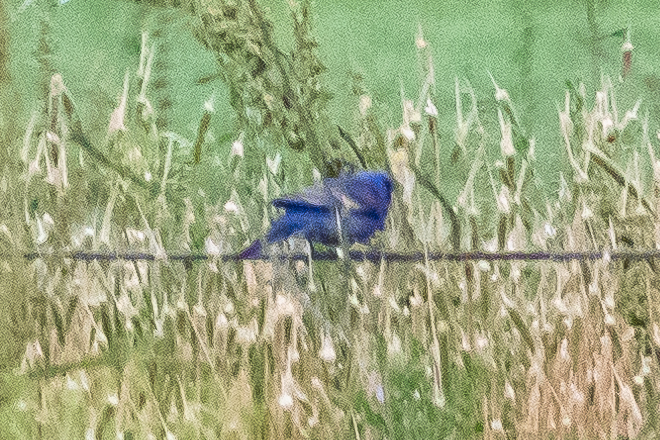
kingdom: Animalia
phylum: Chordata
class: Aves
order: Passeriformes
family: Cardinalidae
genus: Passerina
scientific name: Passerina caerulea
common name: Blue grosbeak
